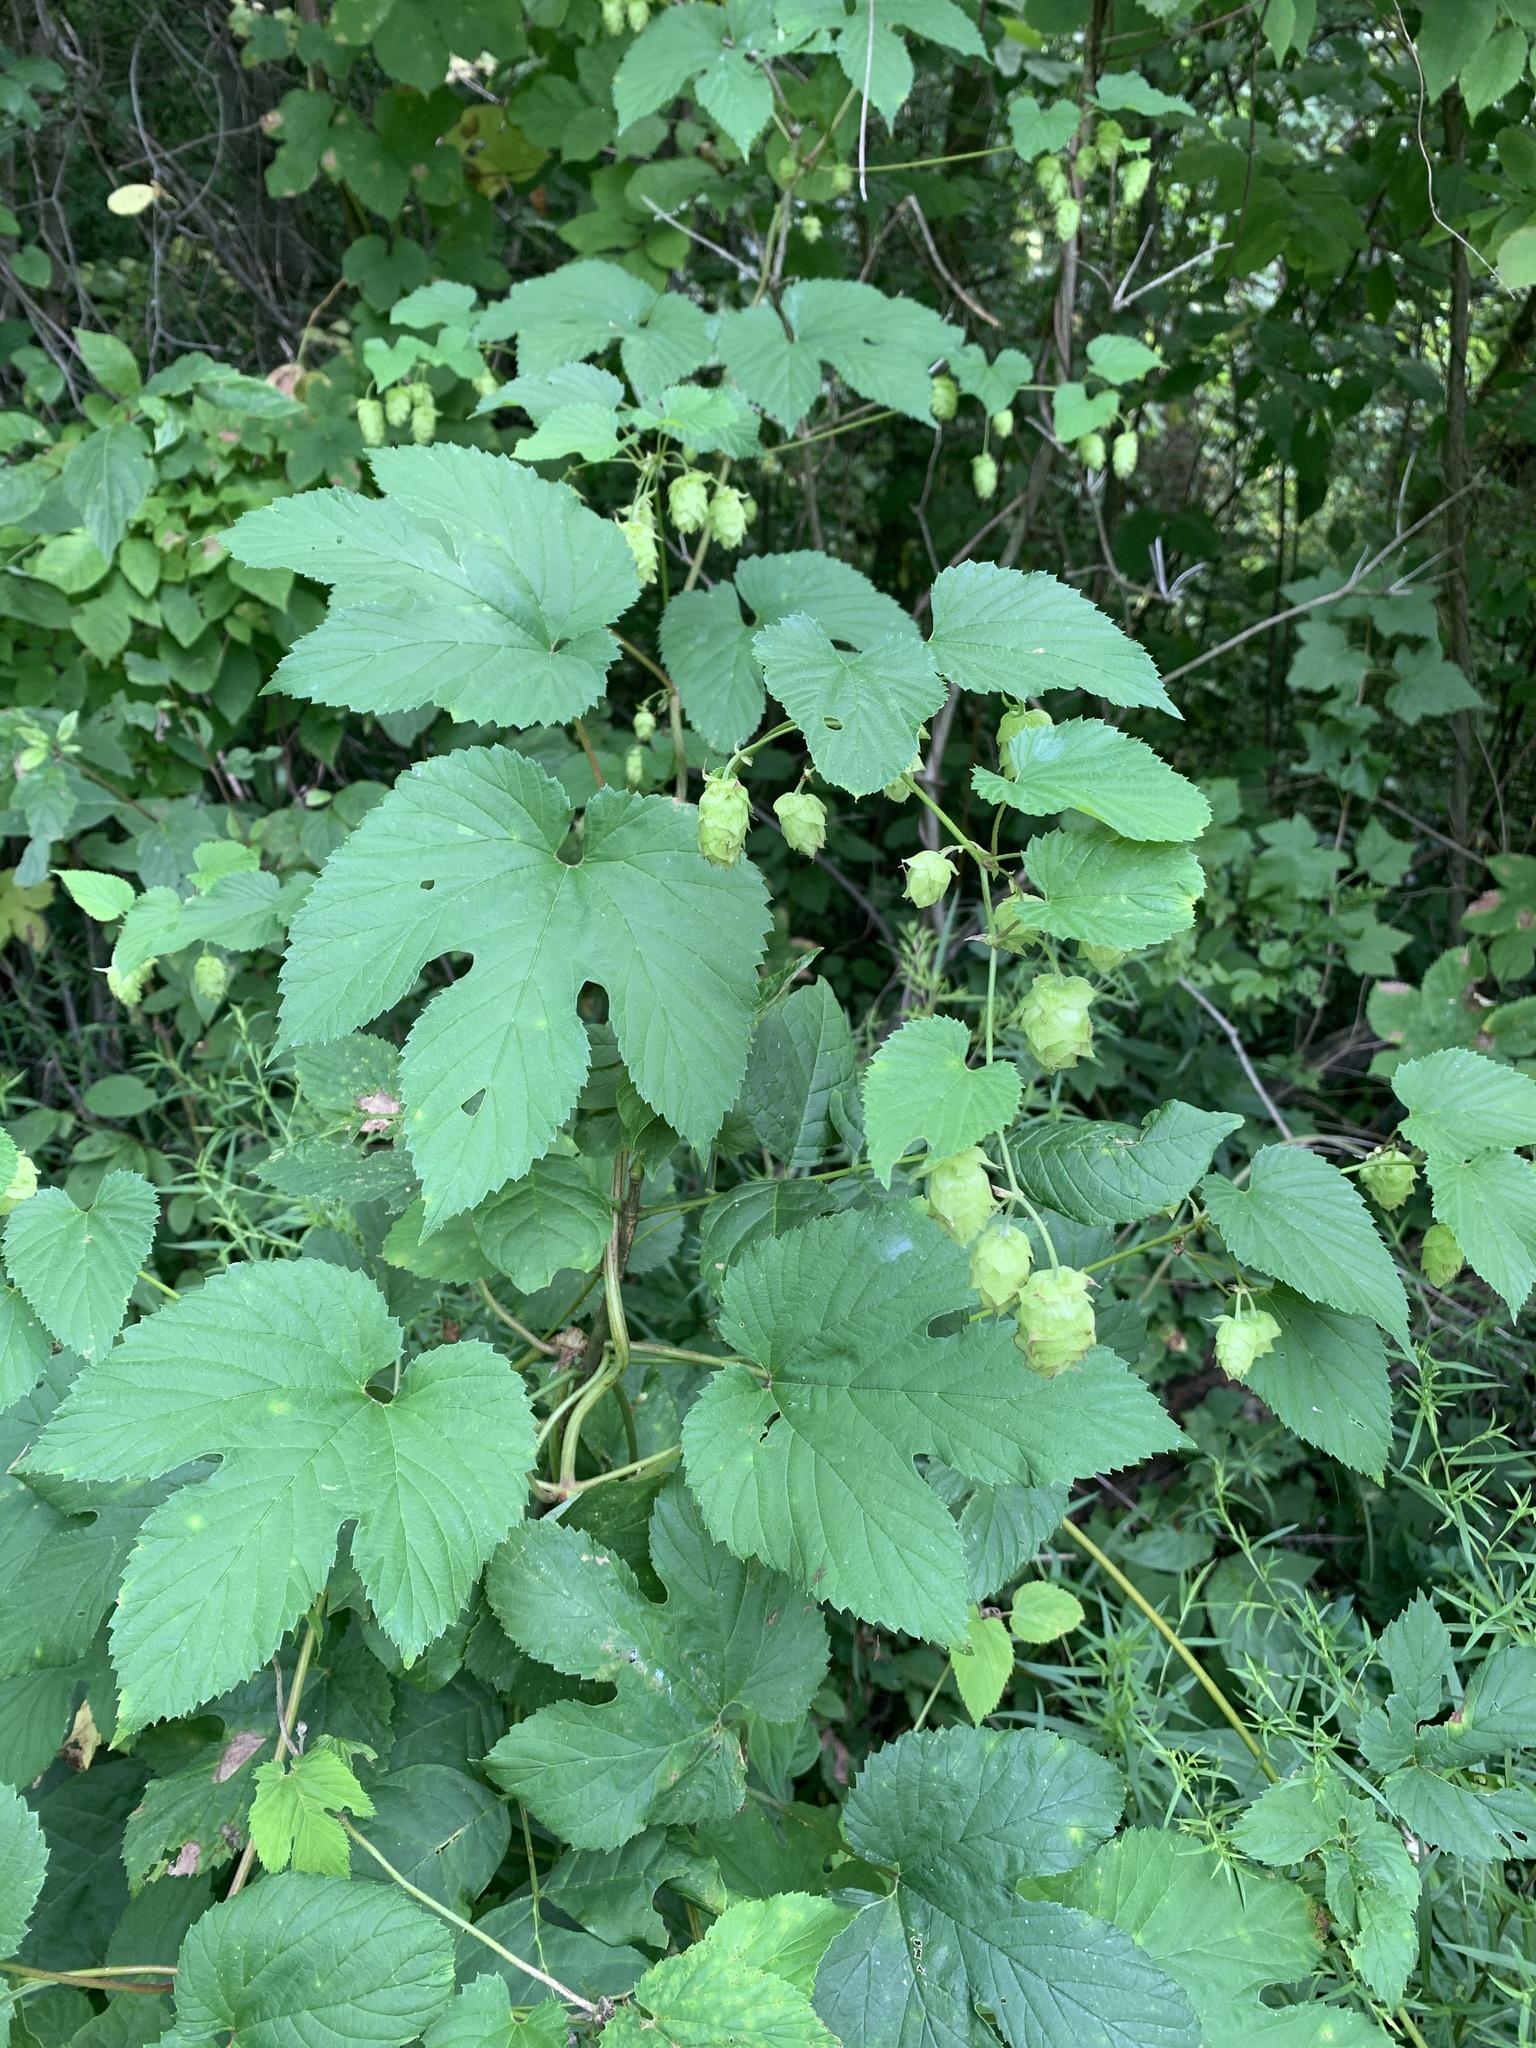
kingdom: Plantae
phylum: Tracheophyta
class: Magnoliopsida
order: Rosales
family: Cannabaceae
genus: Humulus
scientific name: Humulus lupulus
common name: Hop
